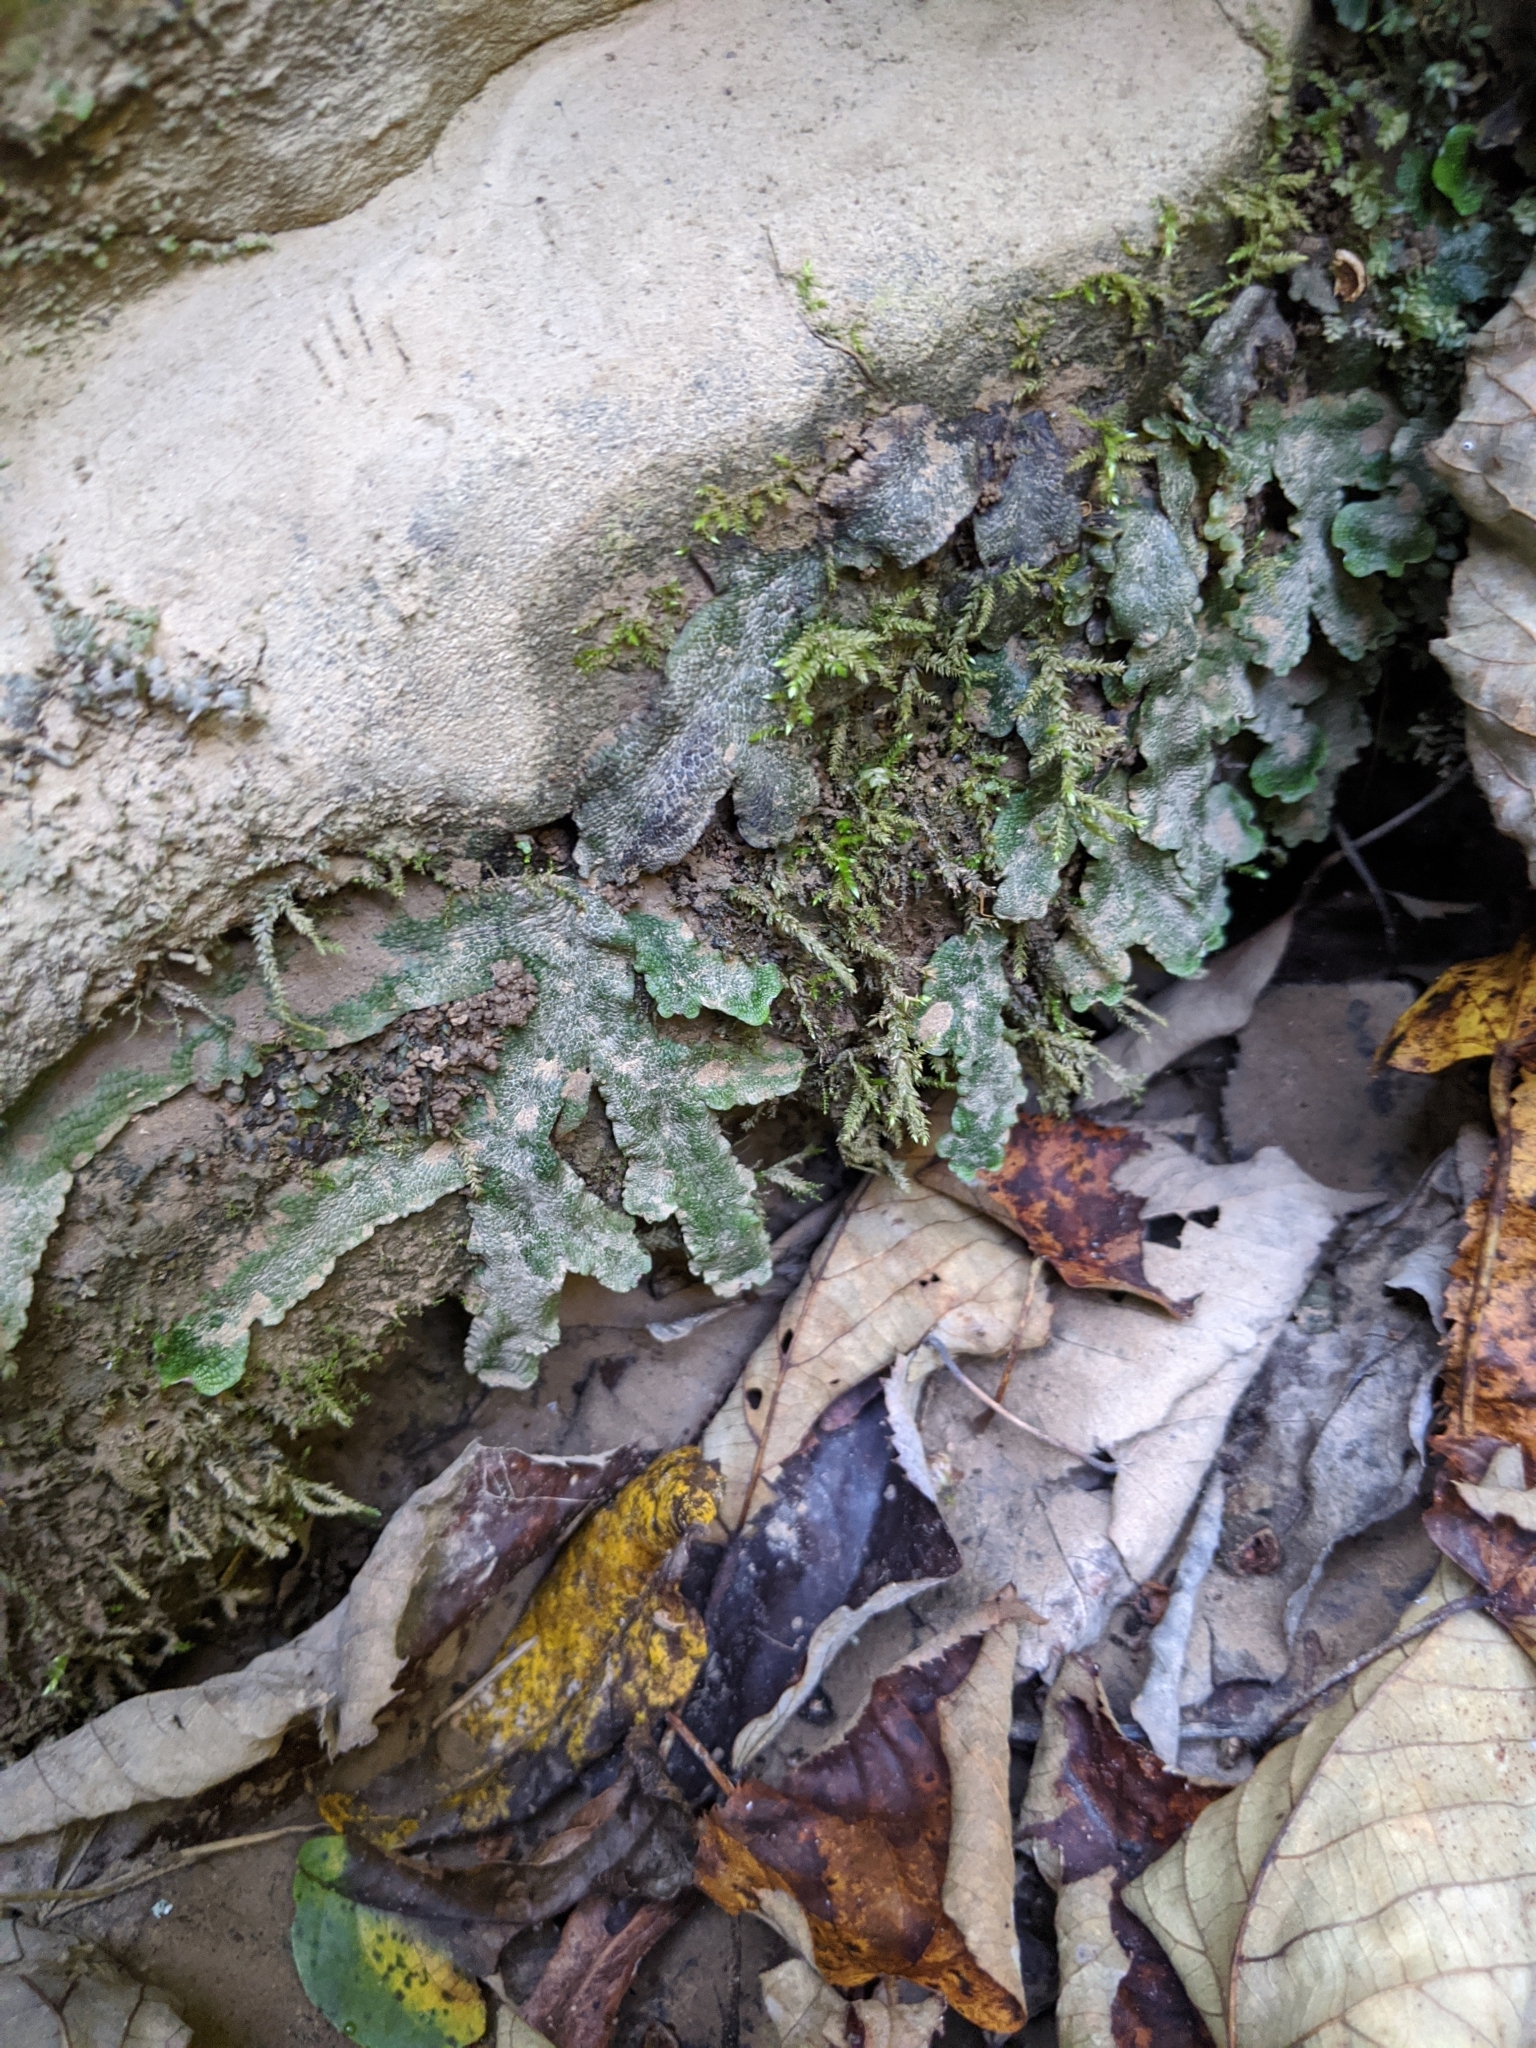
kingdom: Plantae
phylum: Marchantiophyta
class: Marchantiopsida
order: Marchantiales
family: Conocephalaceae
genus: Conocephalum
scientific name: Conocephalum salebrosum
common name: Cat-tongue liverwort
